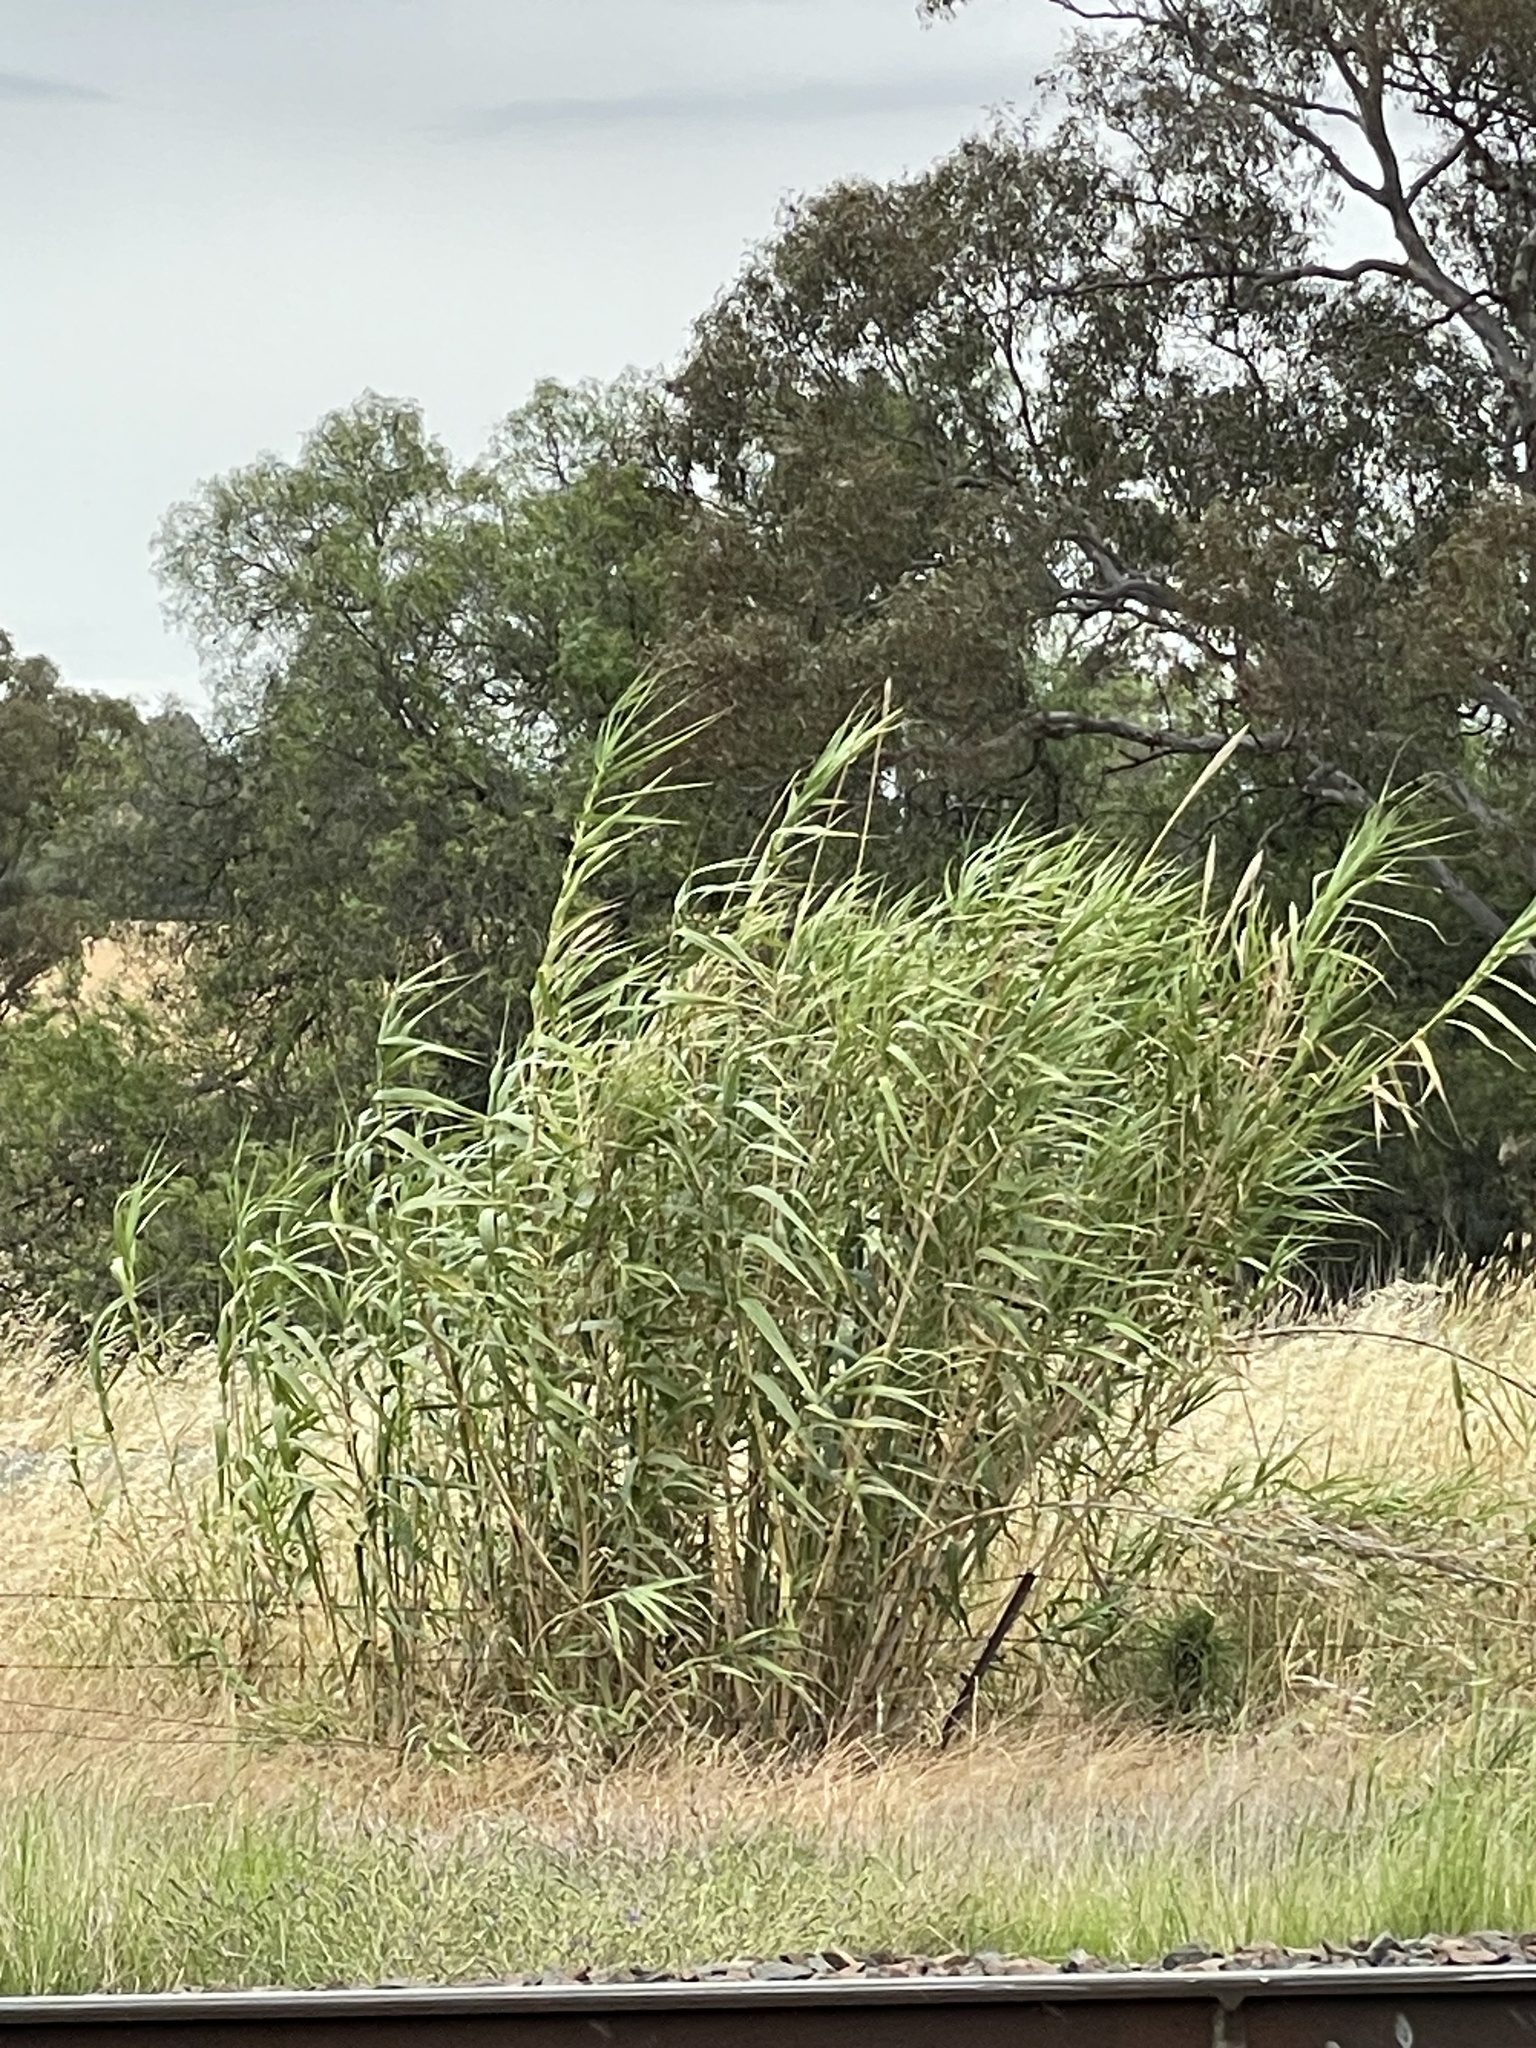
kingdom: Plantae
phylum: Tracheophyta
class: Liliopsida
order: Poales
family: Poaceae
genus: Arundo
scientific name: Arundo donax
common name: Giant reed
